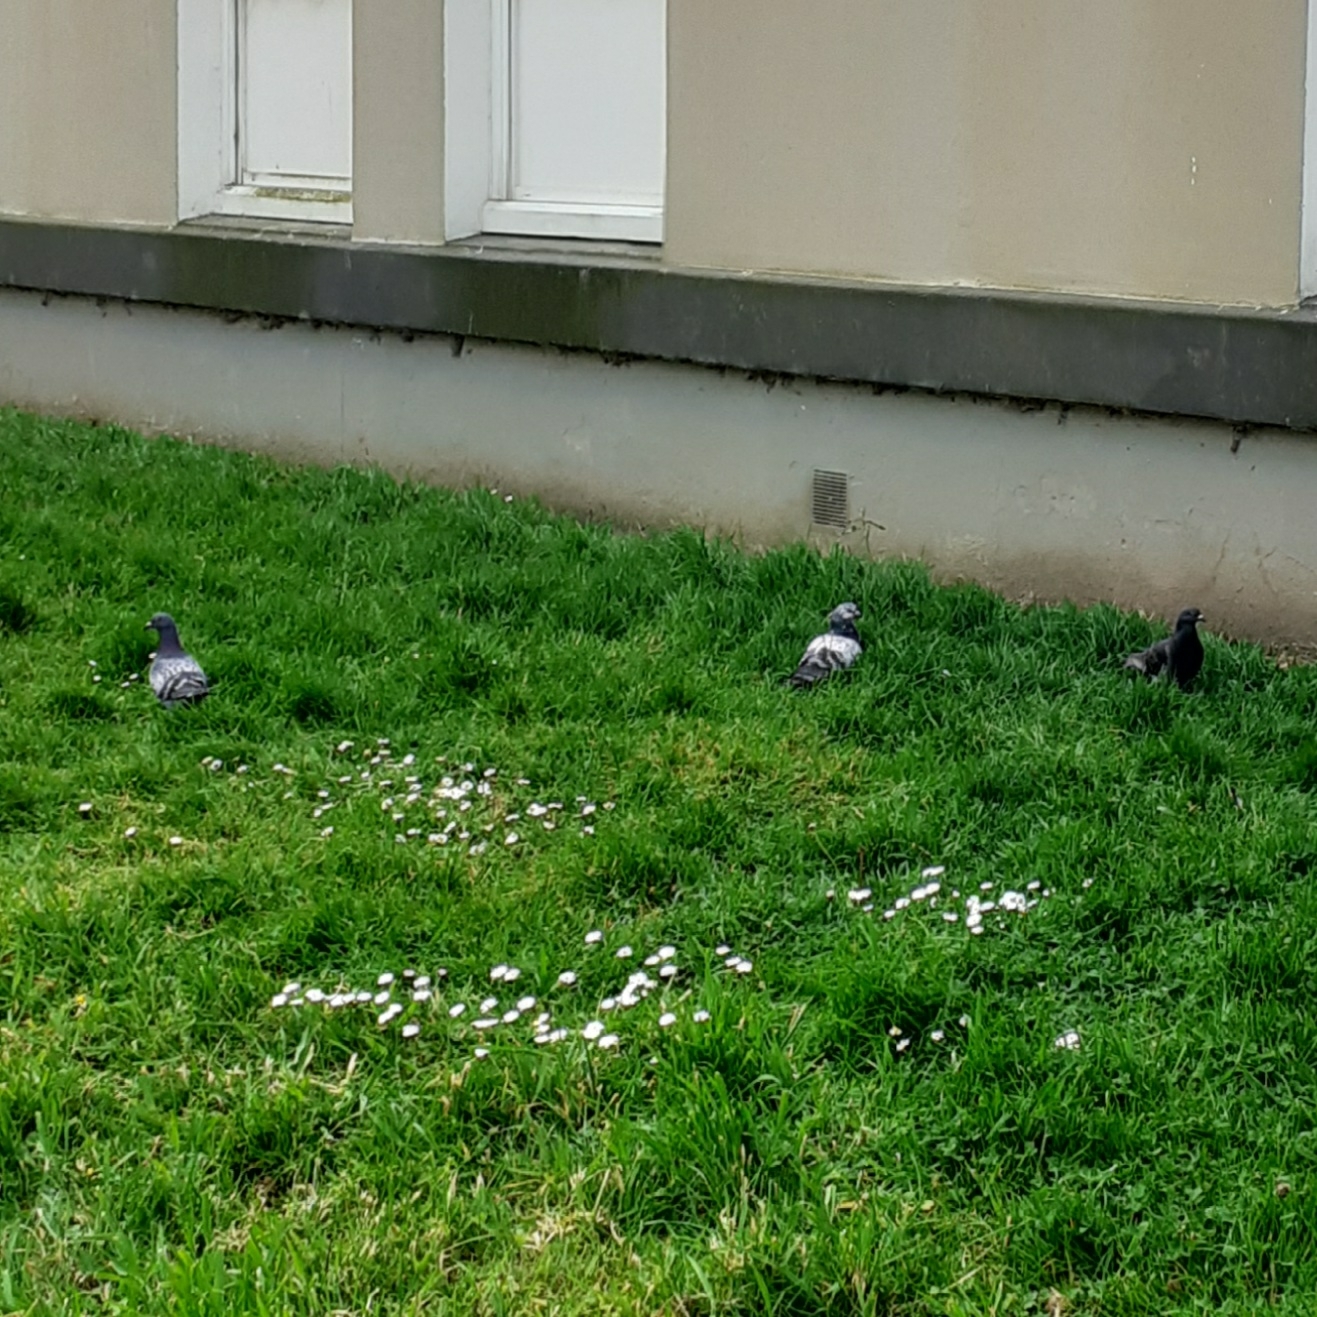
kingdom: Animalia
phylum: Chordata
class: Aves
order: Columbiformes
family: Columbidae
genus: Columba
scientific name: Columba livia
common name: Rock pigeon
